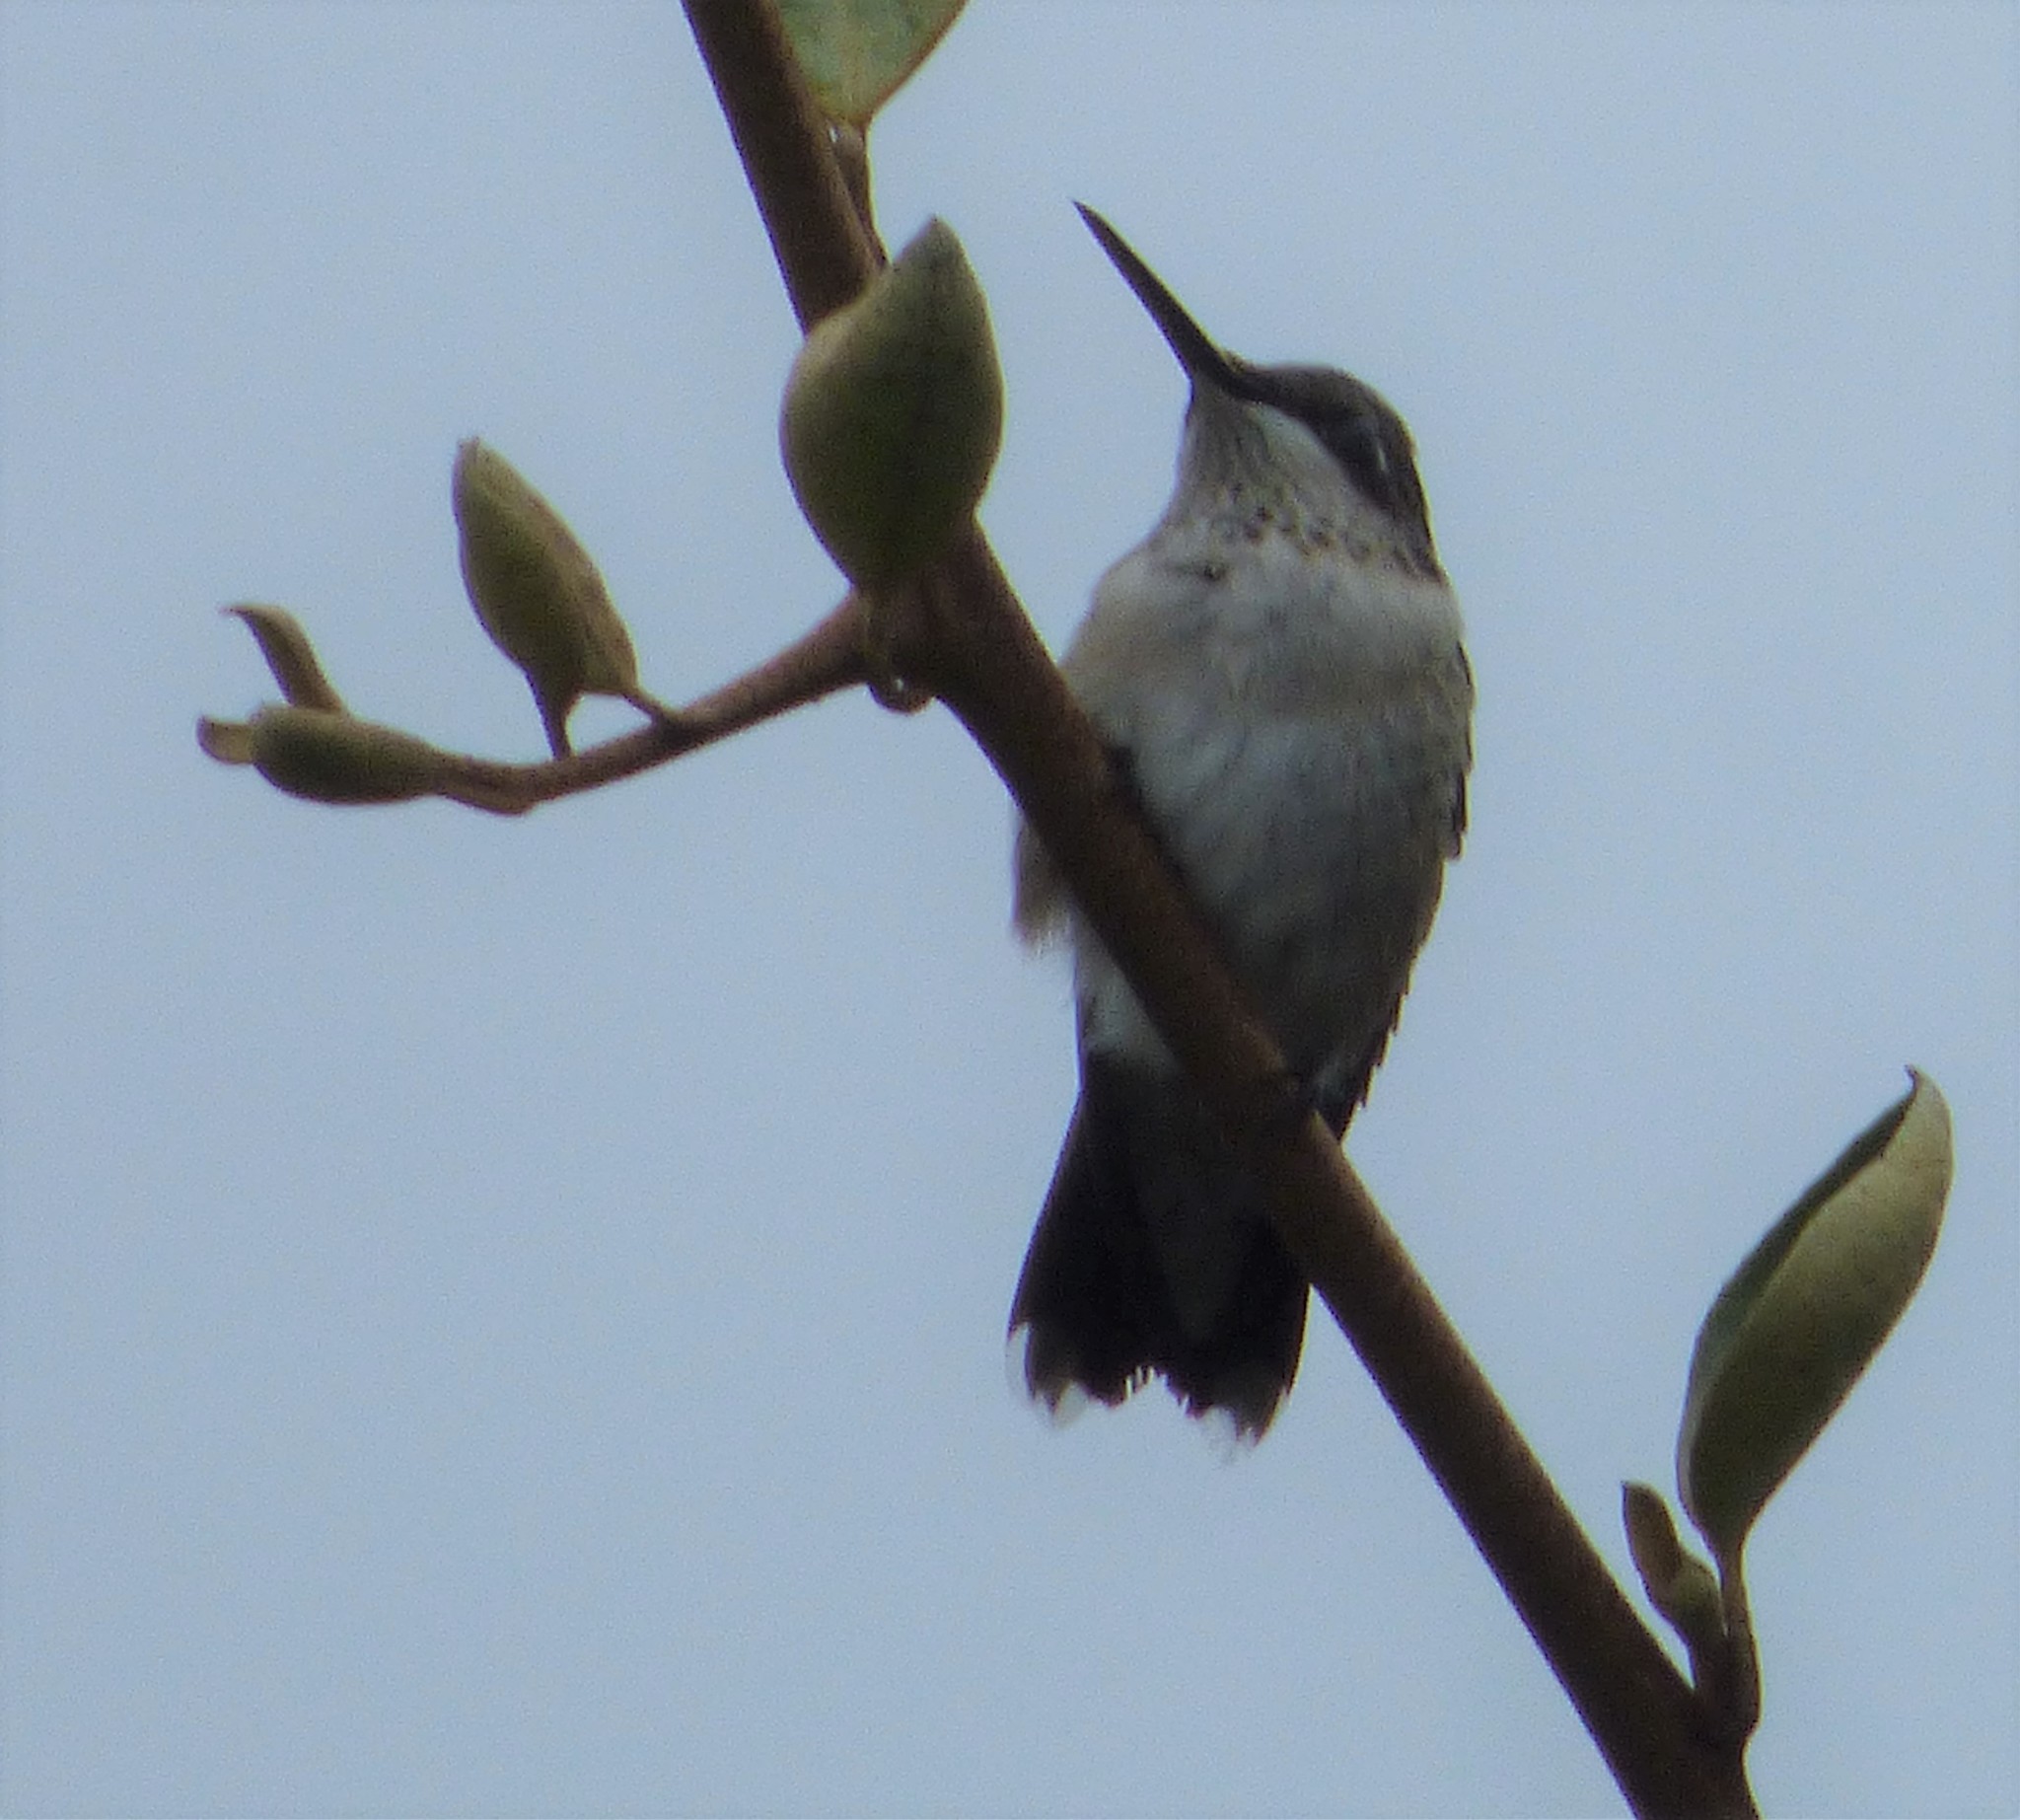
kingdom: Animalia
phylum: Chordata
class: Aves
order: Apodiformes
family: Trochilidae
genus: Archilochus
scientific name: Archilochus colubris
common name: Ruby-throated hummingbird
